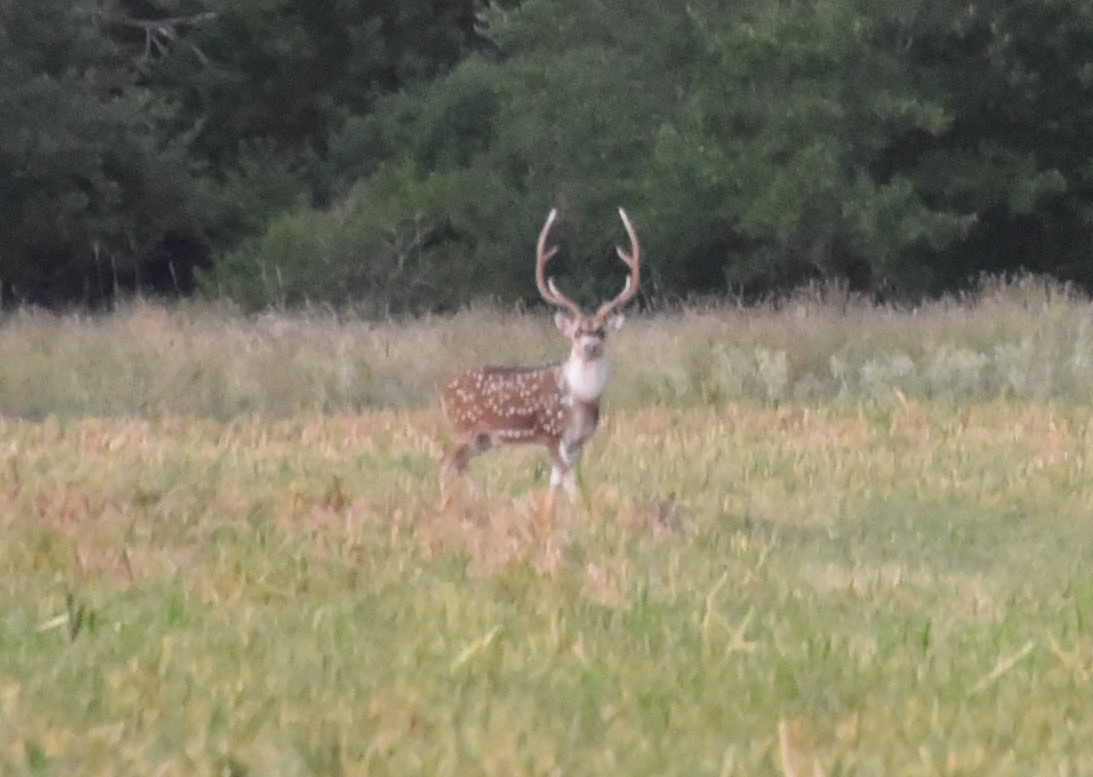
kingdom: Animalia
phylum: Chordata
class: Mammalia
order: Artiodactyla
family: Cervidae
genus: Axis
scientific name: Axis axis
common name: Chital
